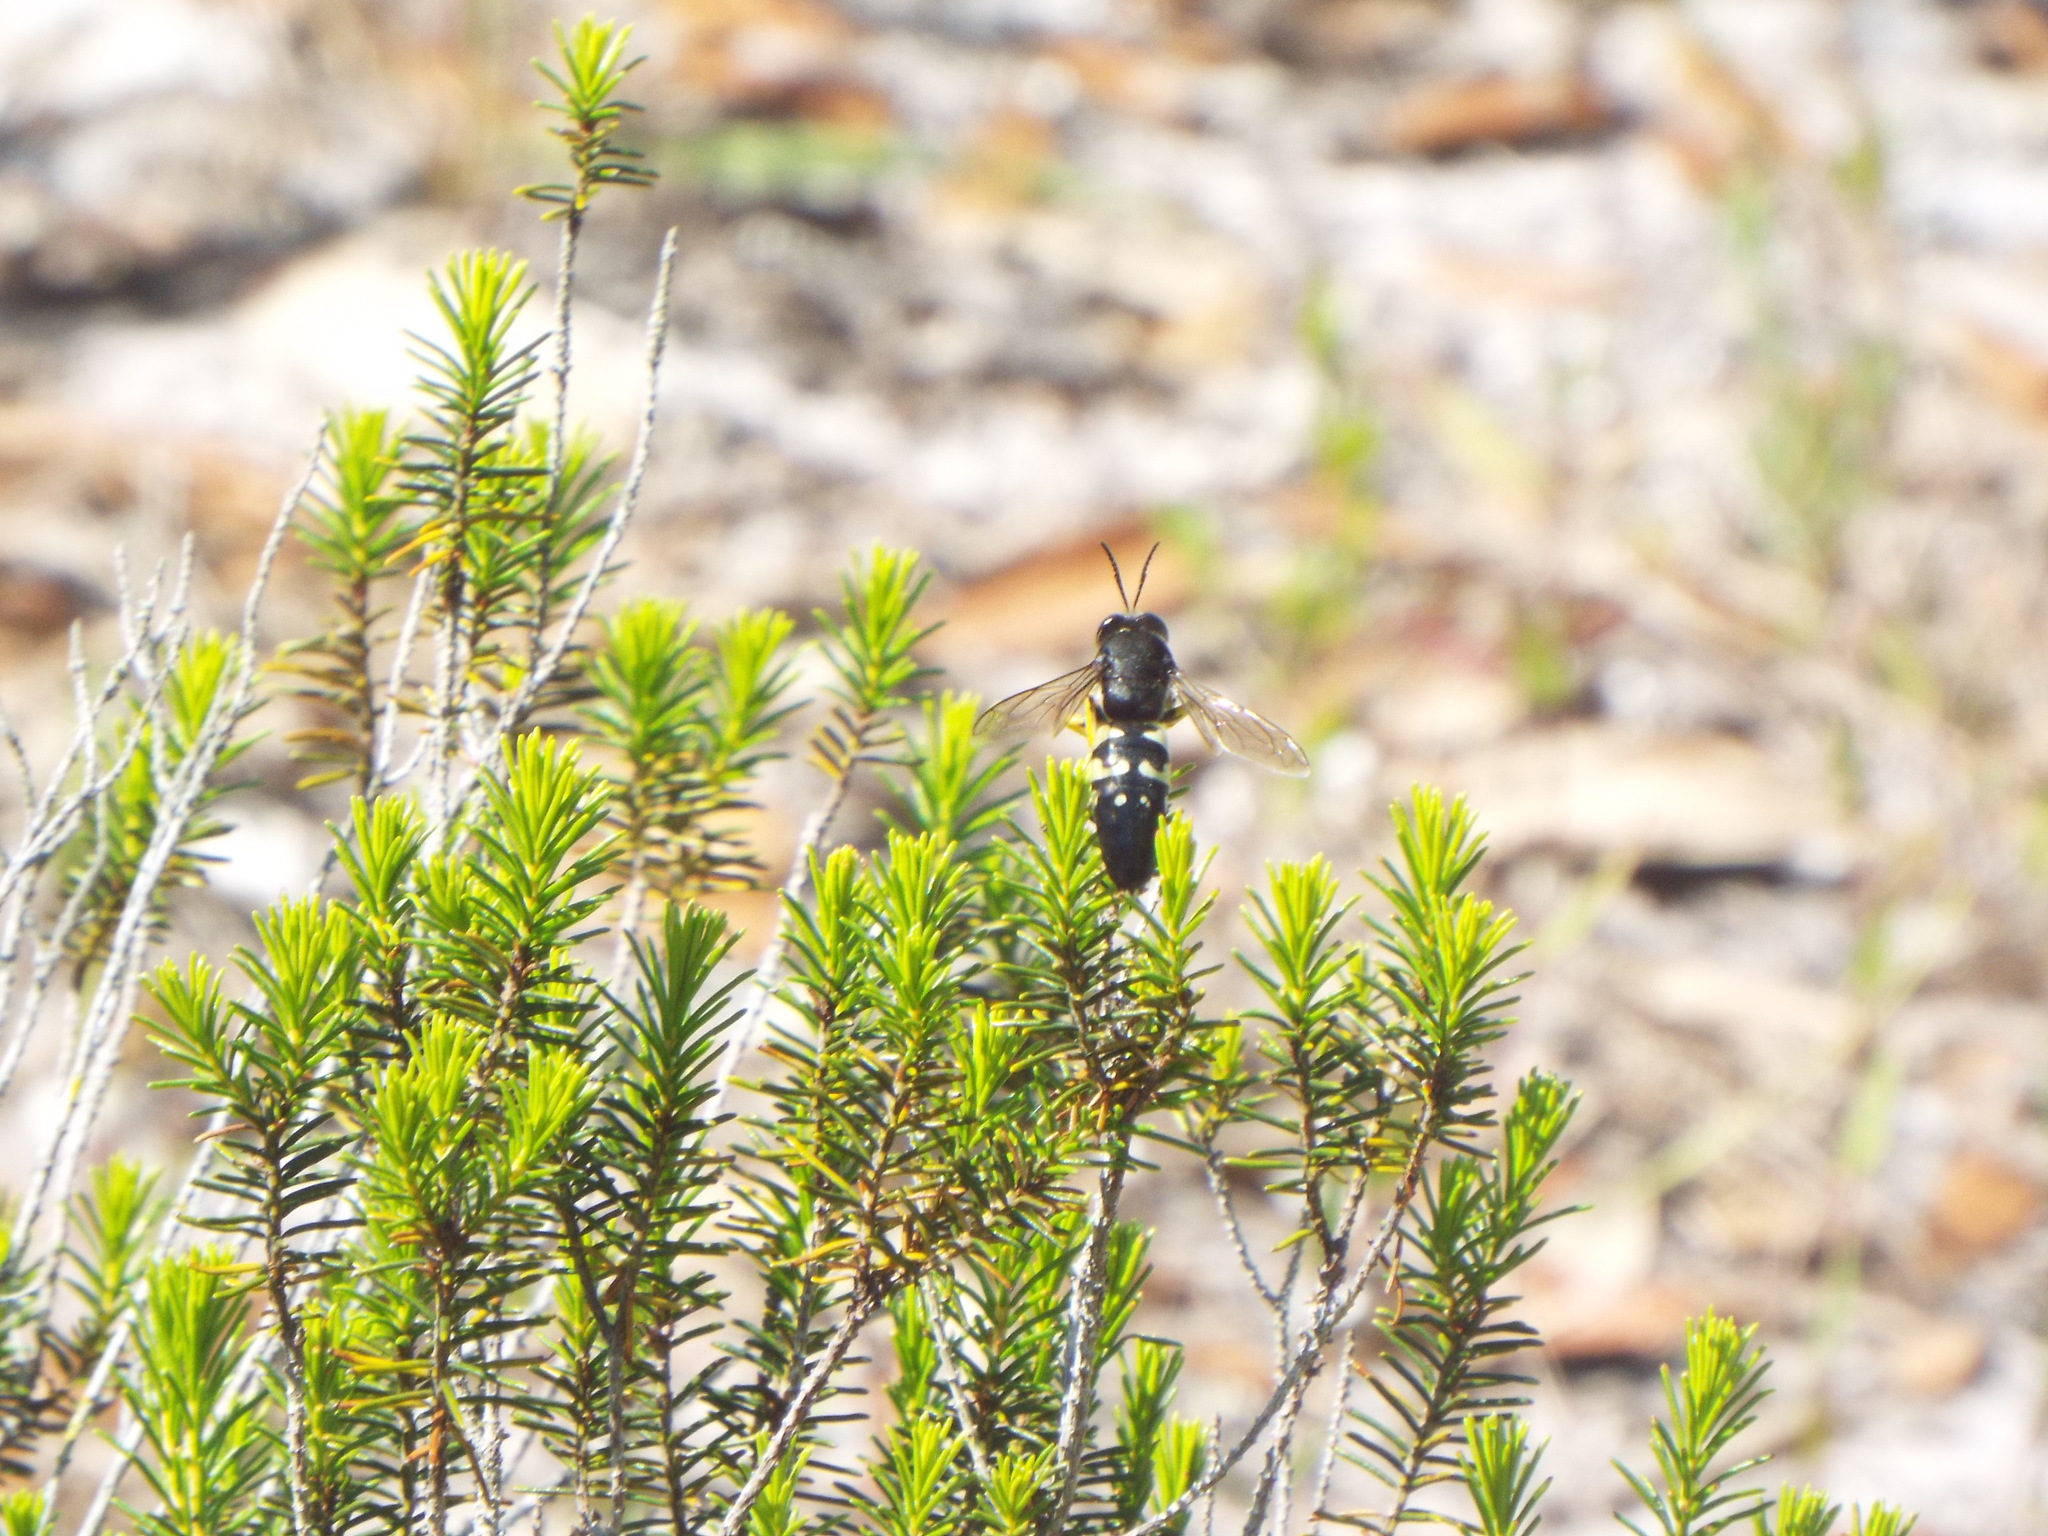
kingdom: Animalia
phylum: Arthropoda
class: Insecta
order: Hymenoptera
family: Crabronidae
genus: Stictia
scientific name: Stictia carolina
